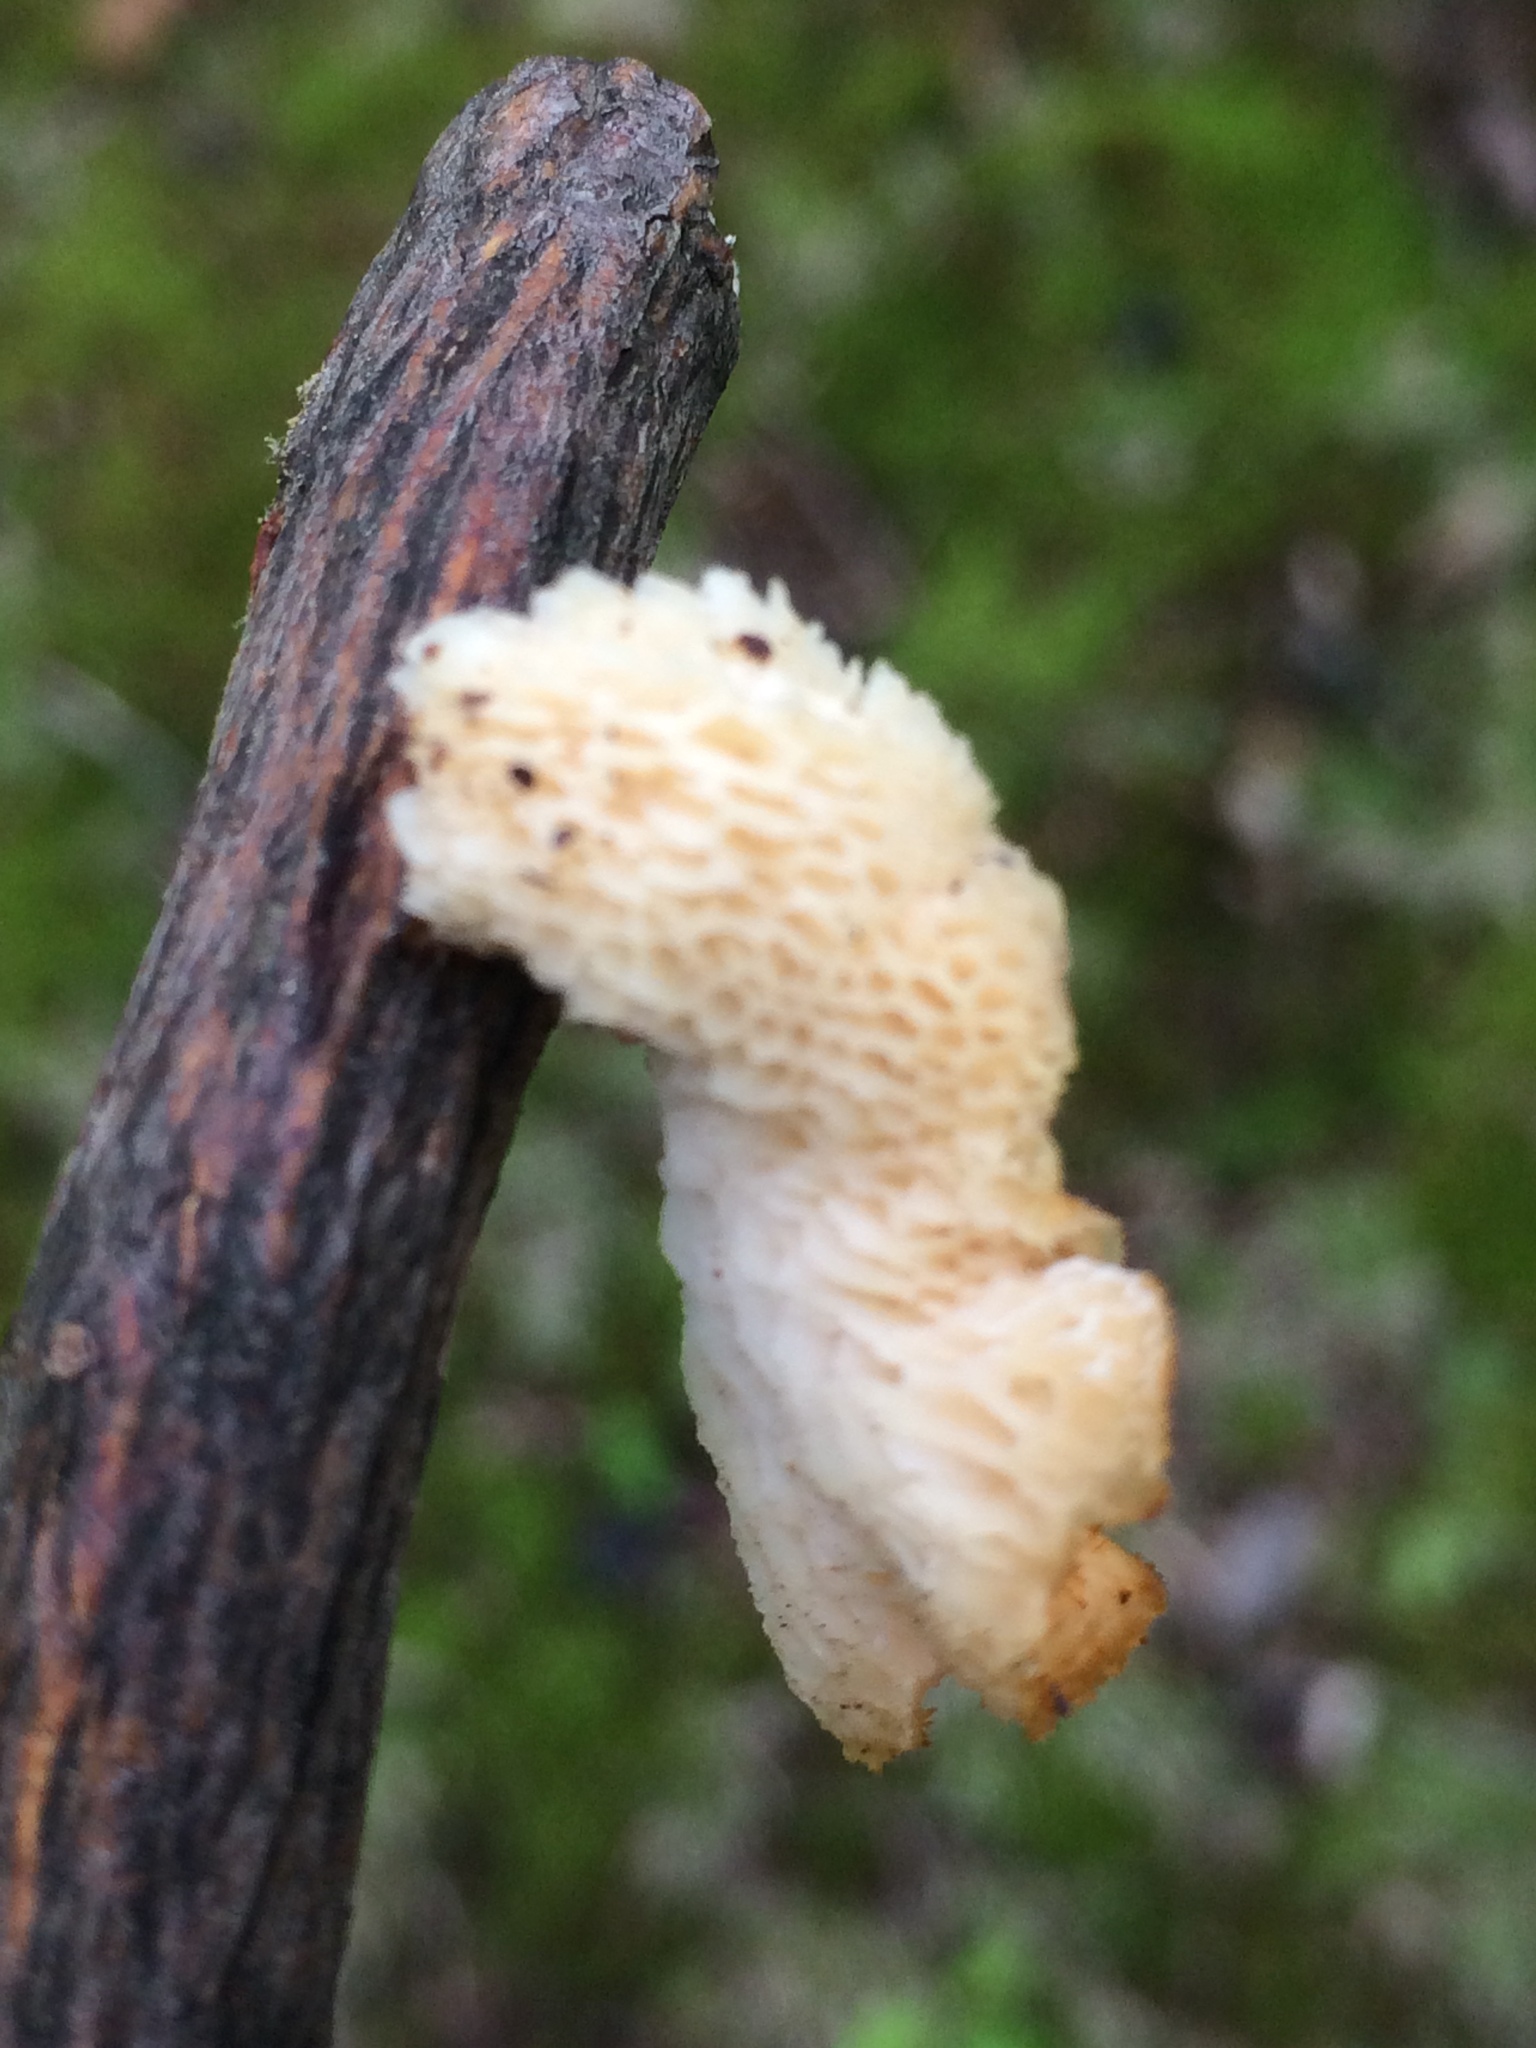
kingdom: Fungi
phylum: Basidiomycota
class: Agaricomycetes
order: Polyporales
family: Polyporaceae
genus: Neofavolus
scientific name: Neofavolus alveolaris
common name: Hexagonal-pored polypore
